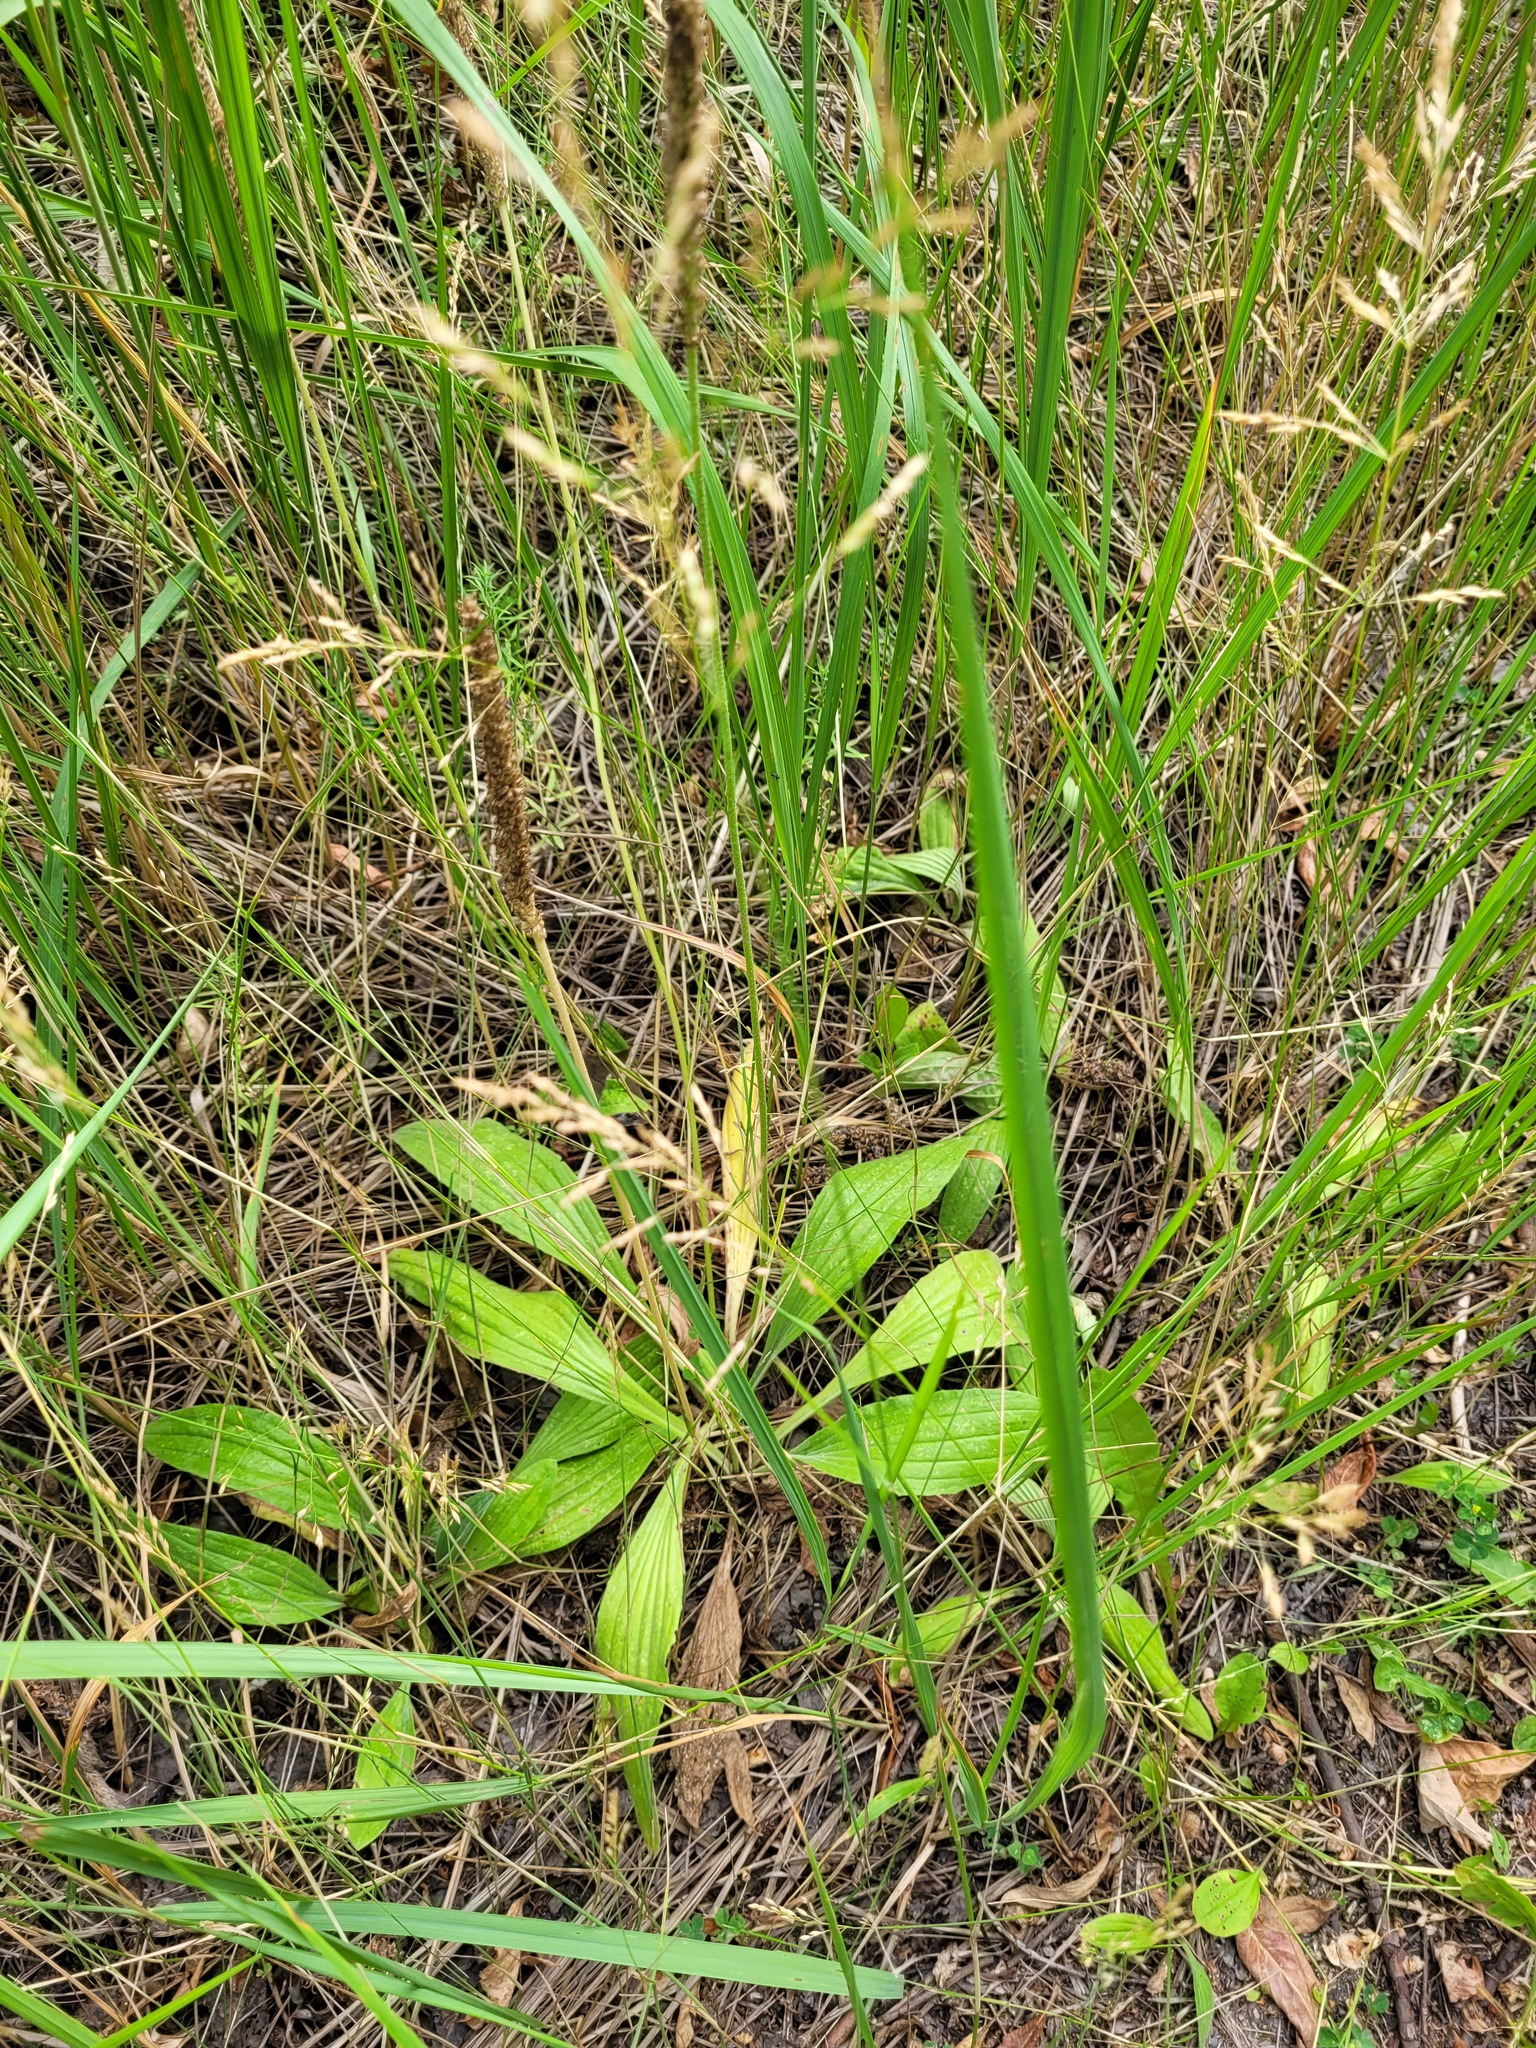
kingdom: Plantae
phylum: Tracheophyta
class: Magnoliopsida
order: Lamiales
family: Plantaginaceae
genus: Plantago
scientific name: Plantago urvillei
